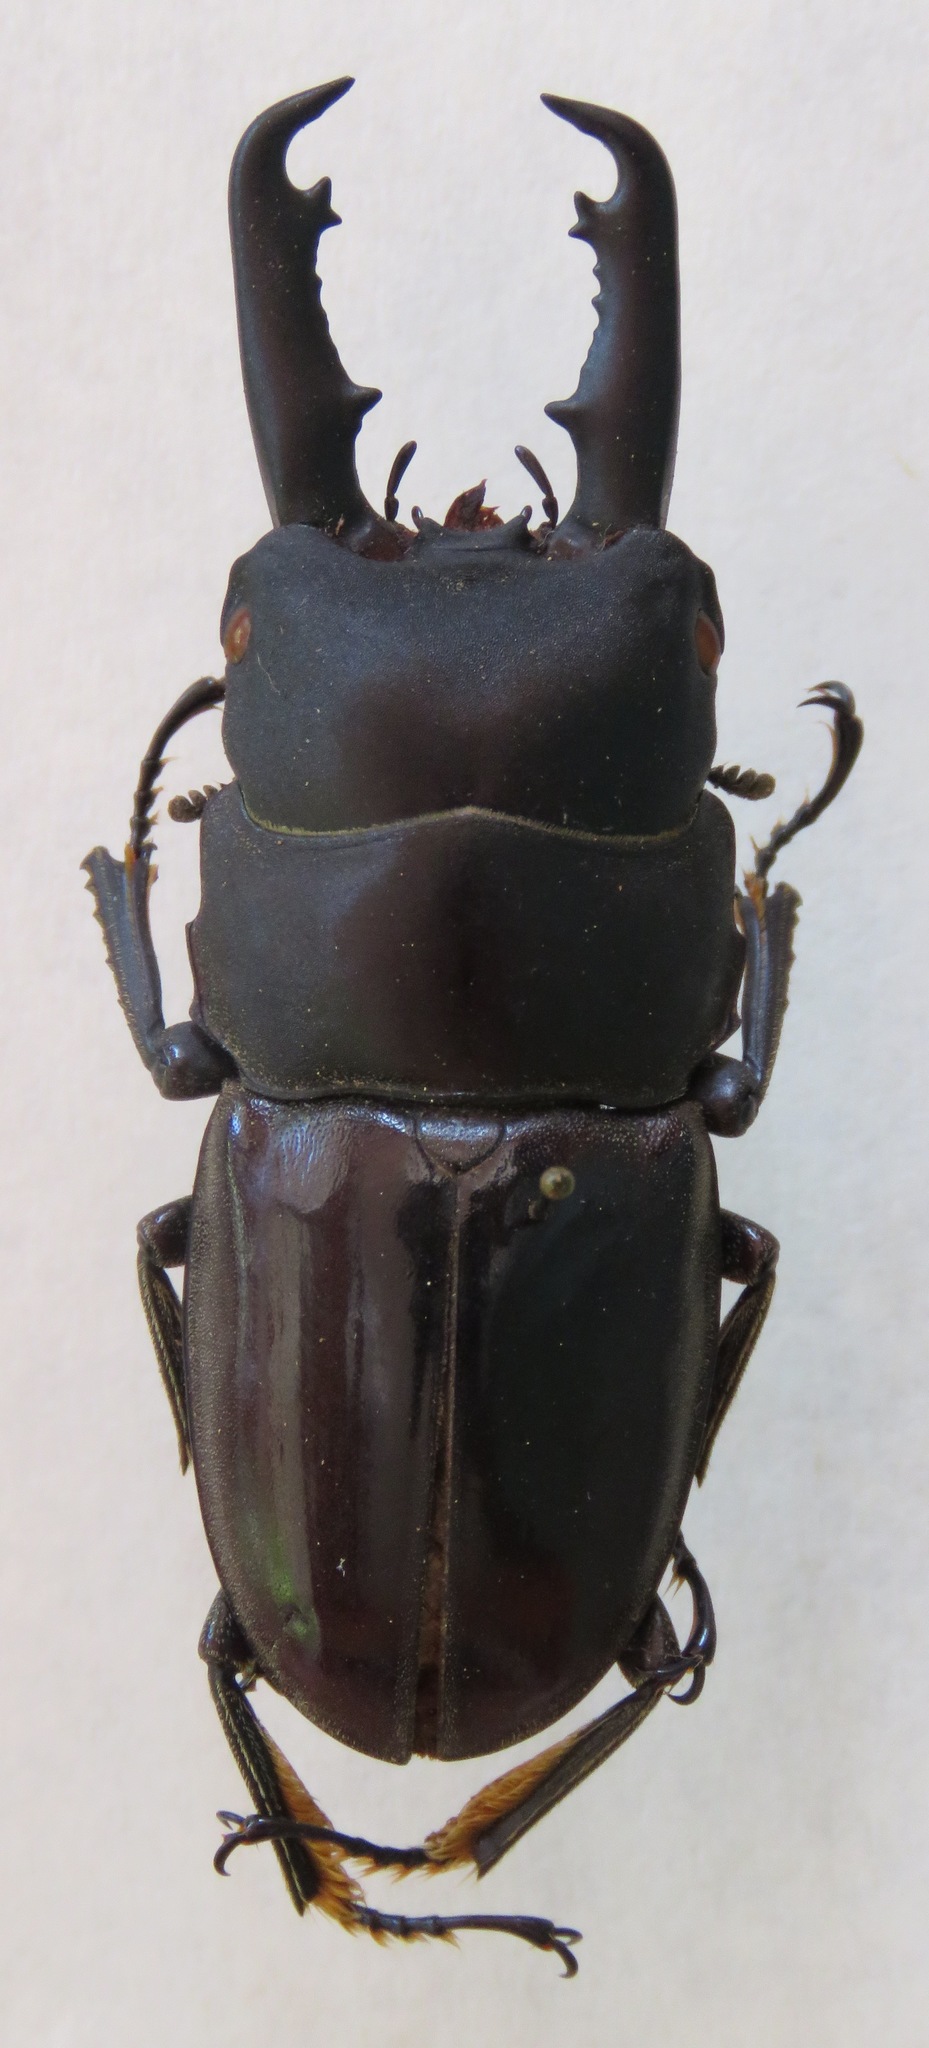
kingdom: Animalia
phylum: Arthropoda
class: Insecta
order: Coleoptera
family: Lucanidae
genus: Dorcus
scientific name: Dorcus townesi
